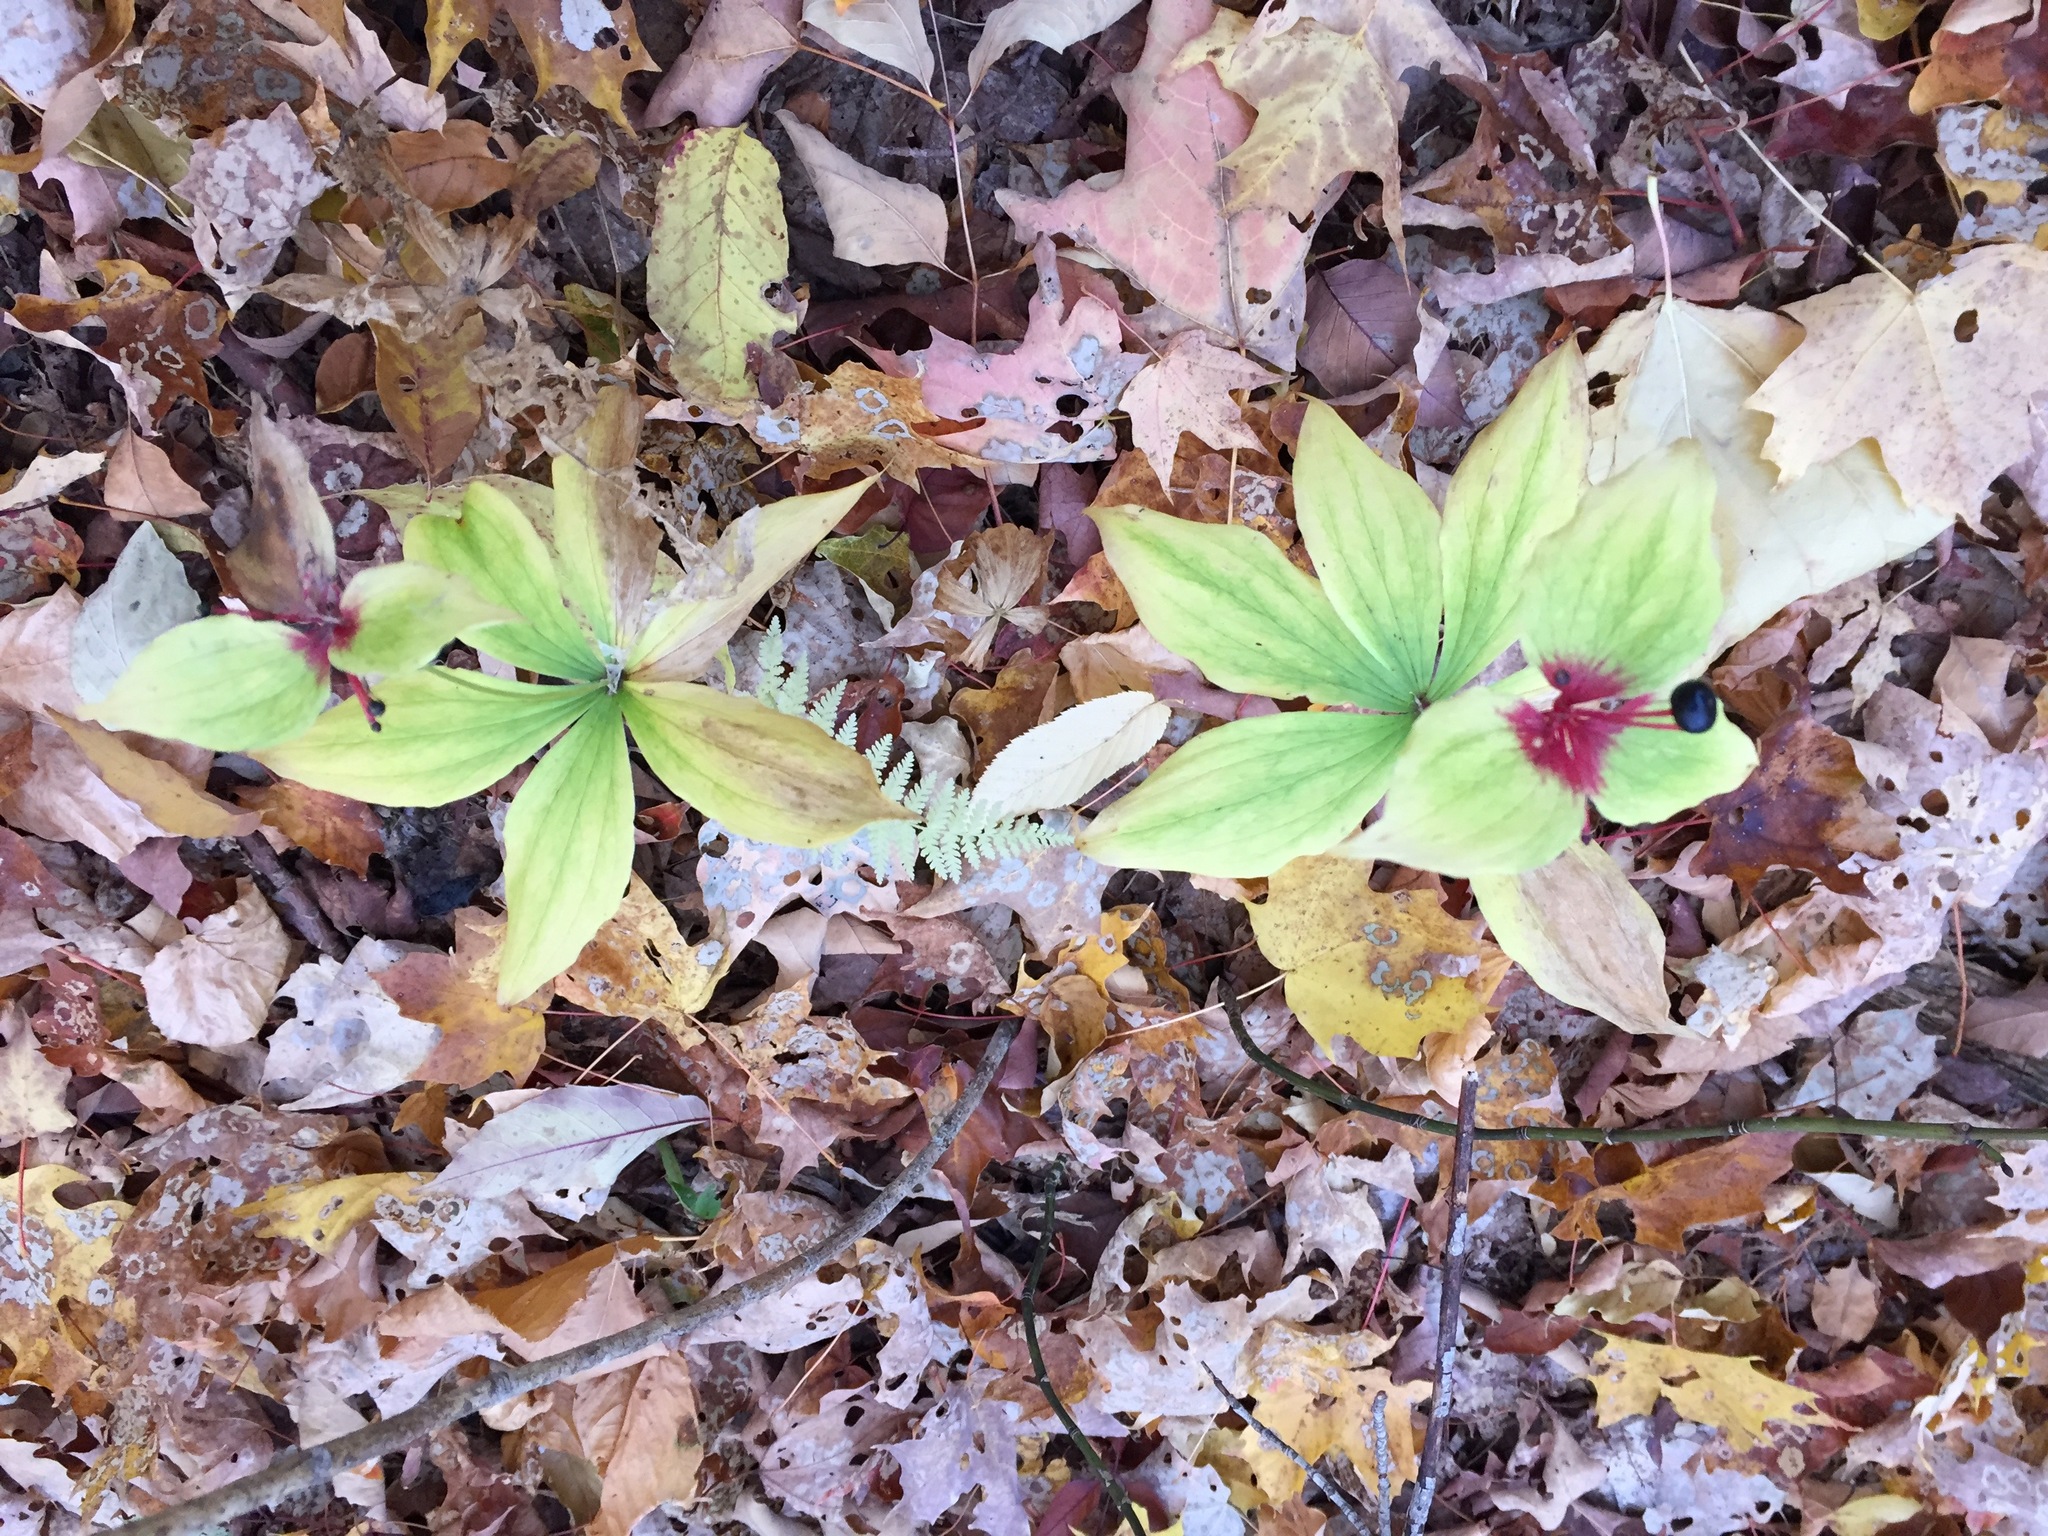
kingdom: Plantae
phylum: Tracheophyta
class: Liliopsida
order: Liliales
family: Liliaceae
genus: Medeola
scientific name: Medeola virginiana
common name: Indian cucumber-root
